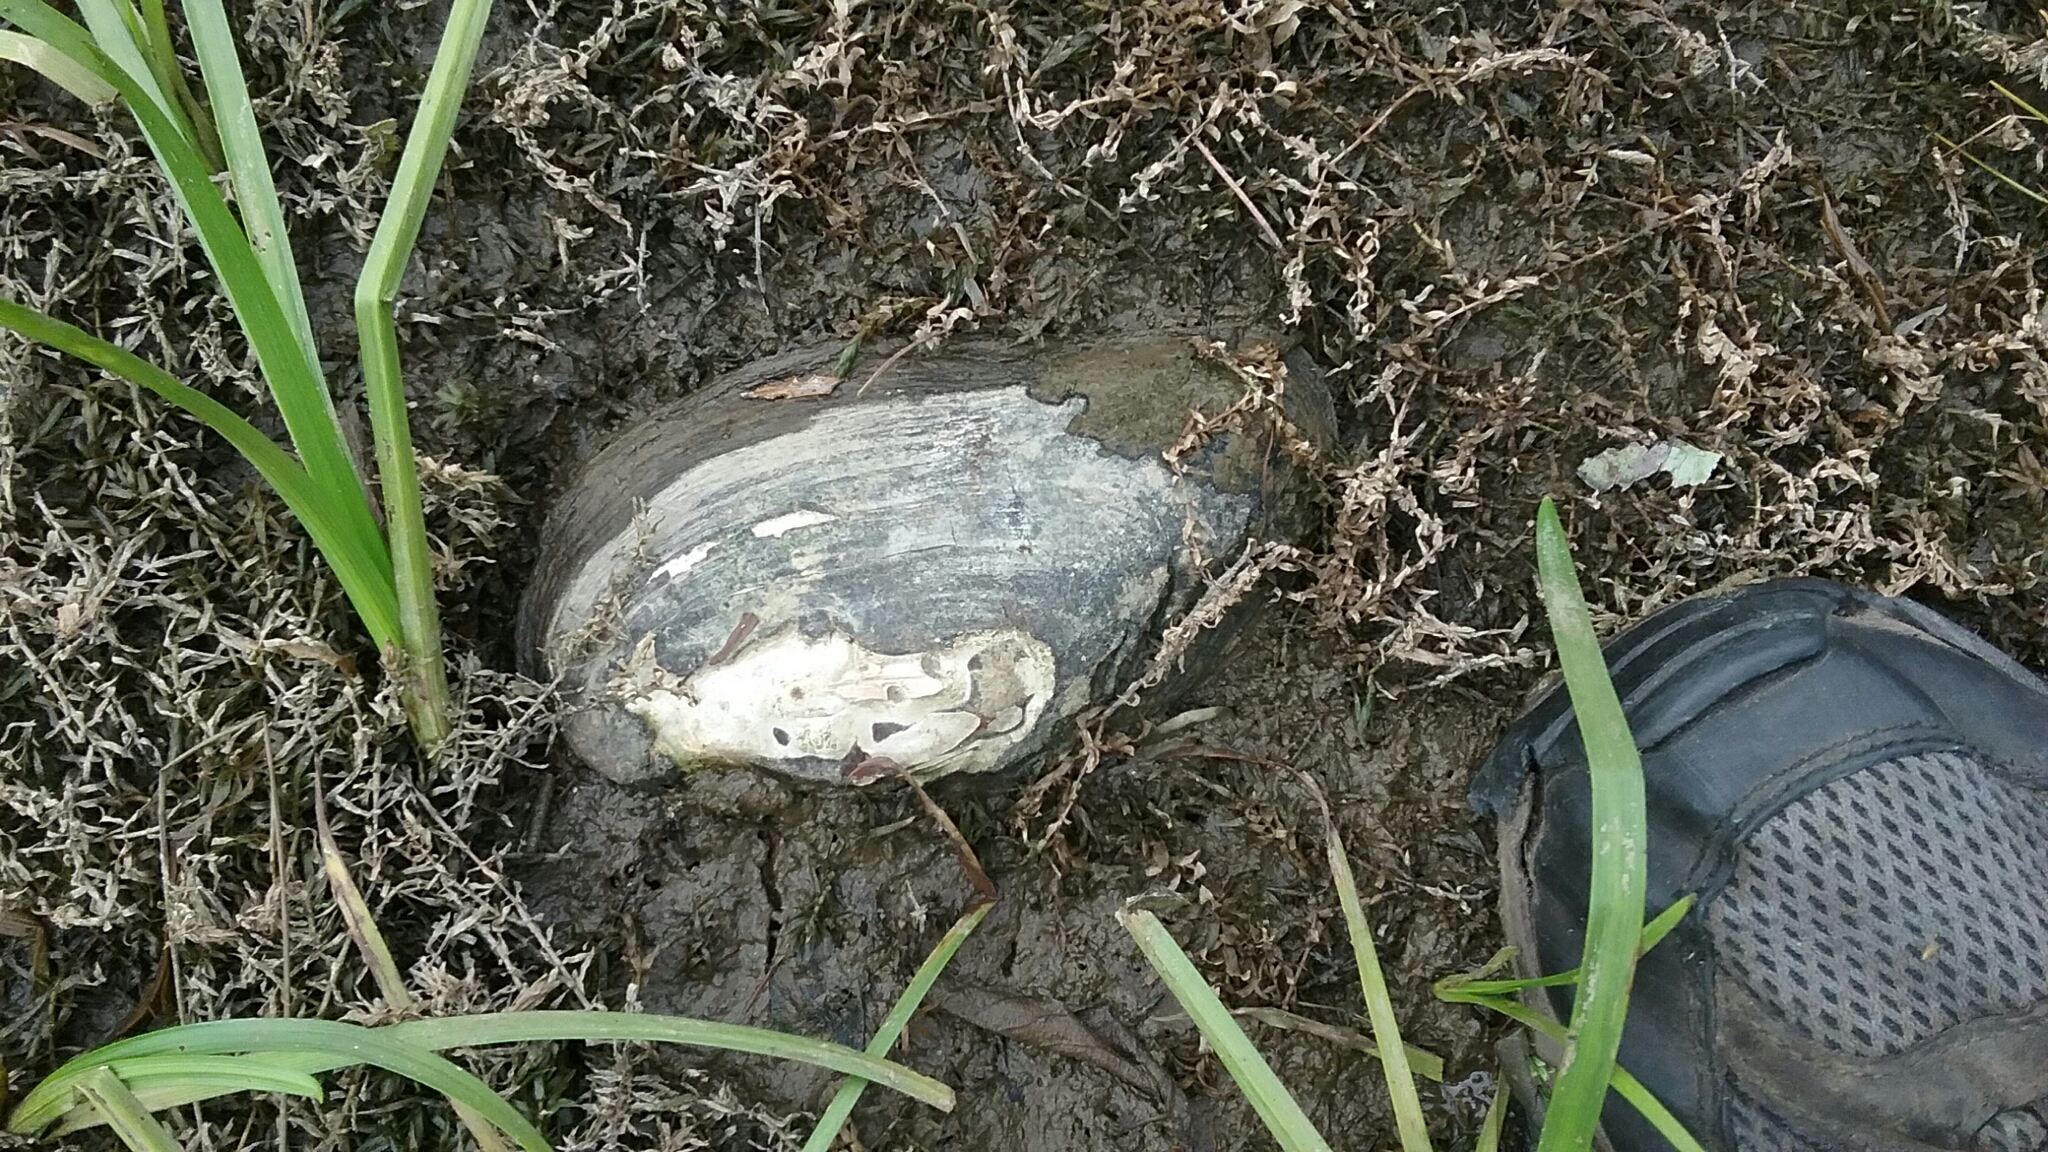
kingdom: Animalia
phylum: Mollusca
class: Bivalvia
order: Unionida
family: Unionidae
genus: Elliptio
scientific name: Elliptio complanata
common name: Eastern elliptio
